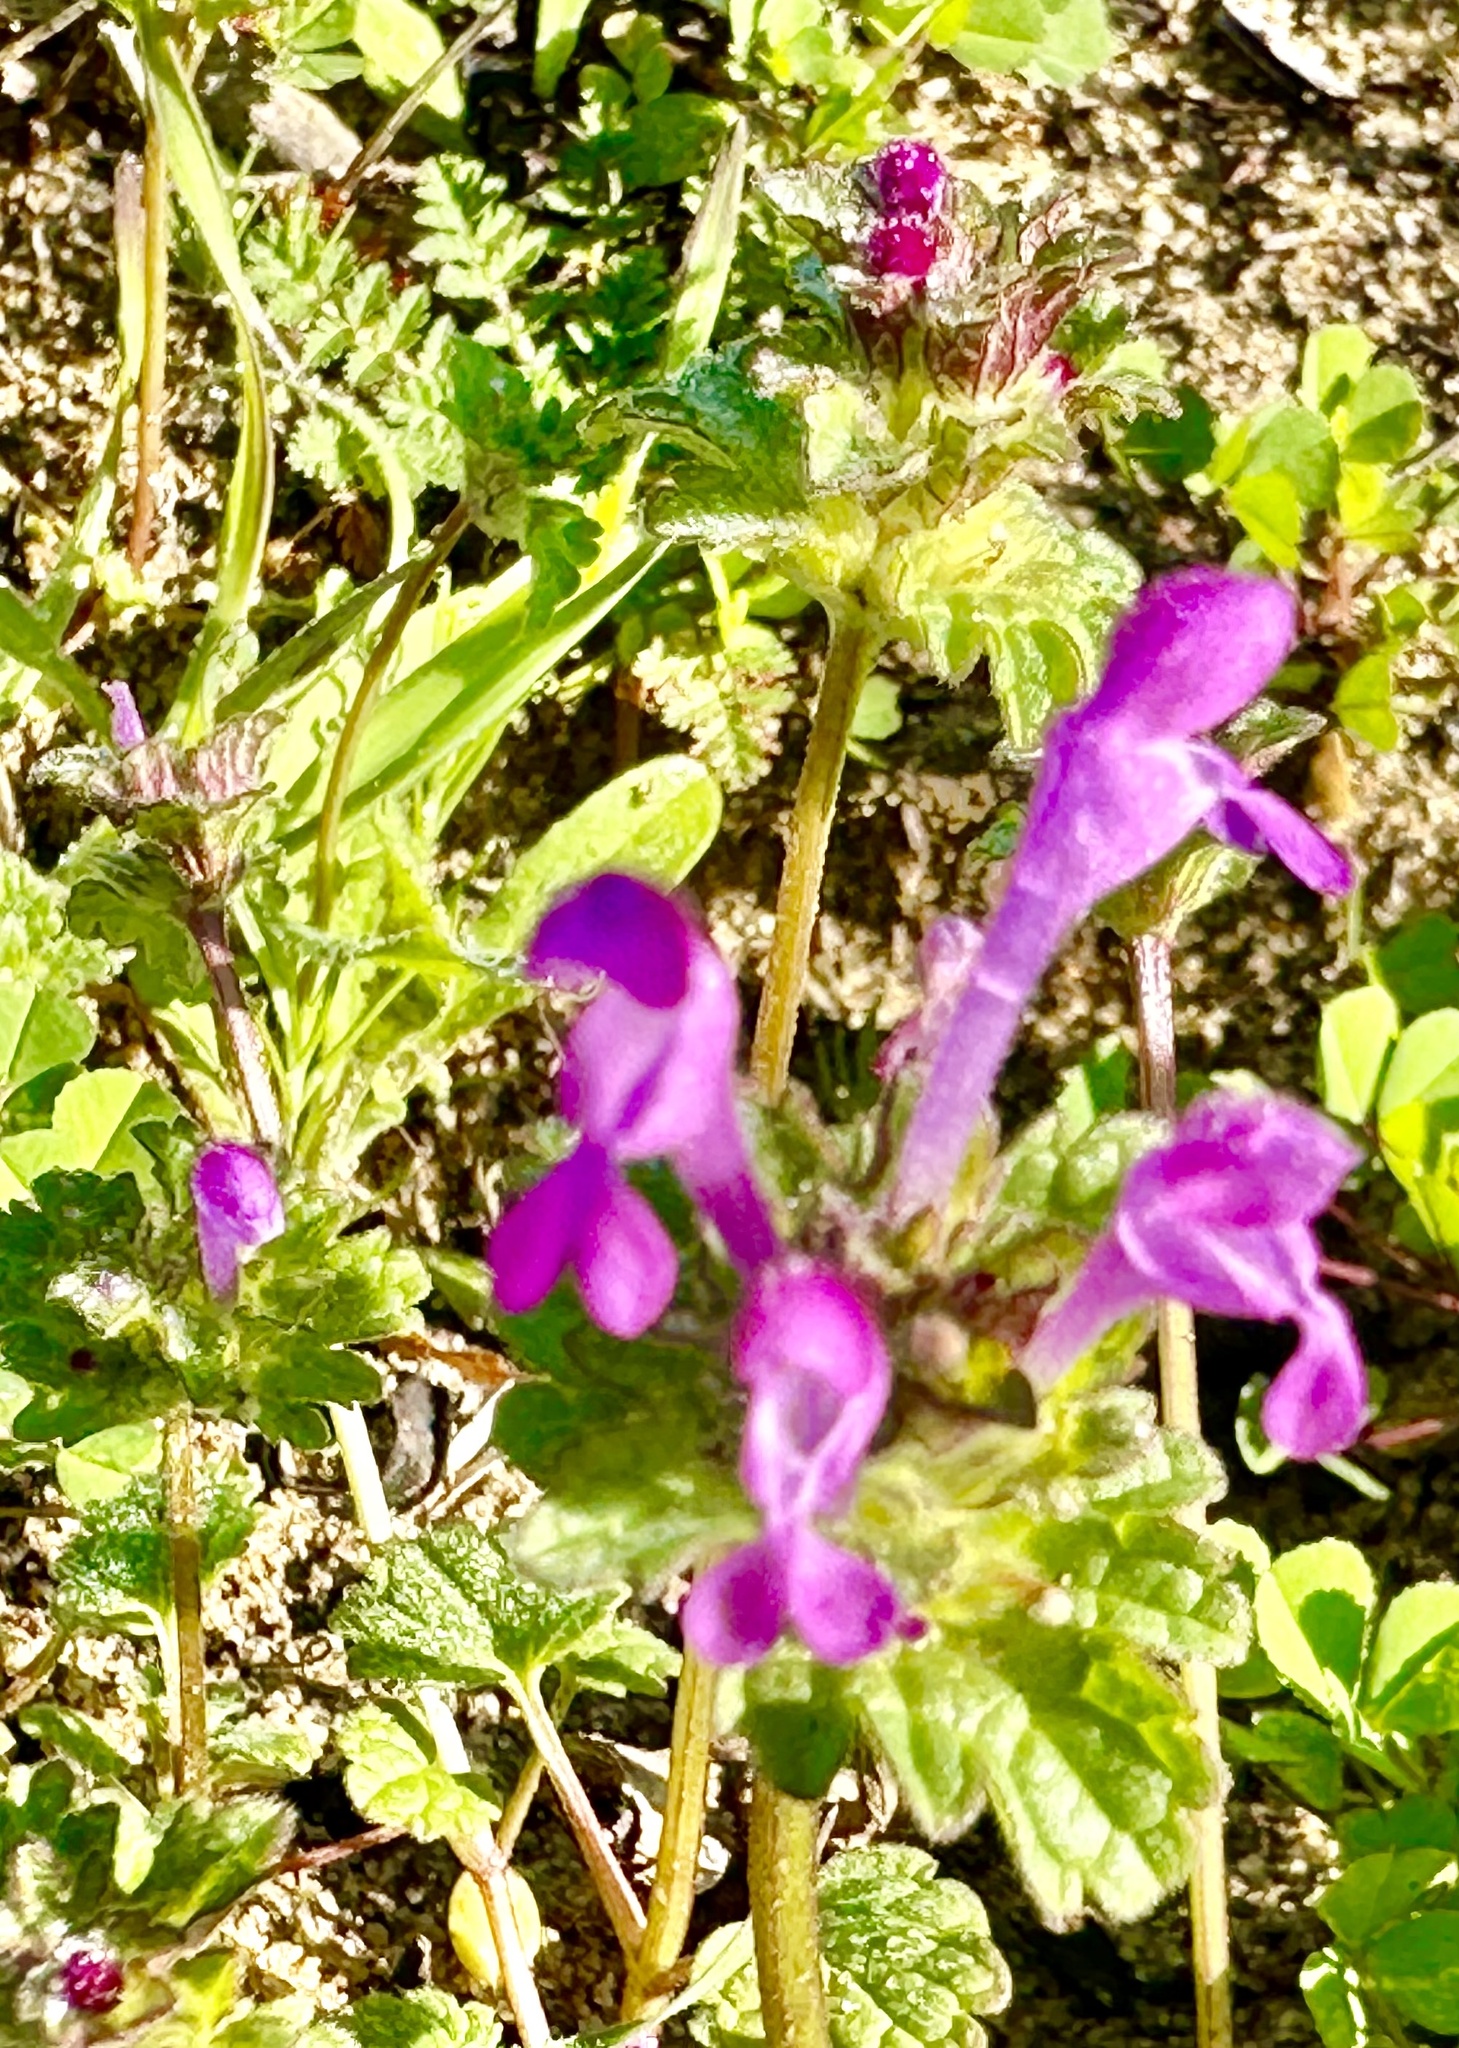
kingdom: Plantae
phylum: Tracheophyta
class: Magnoliopsida
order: Lamiales
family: Lamiaceae
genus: Lamium
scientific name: Lamium amplexicaule
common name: Henbit dead-nettle
